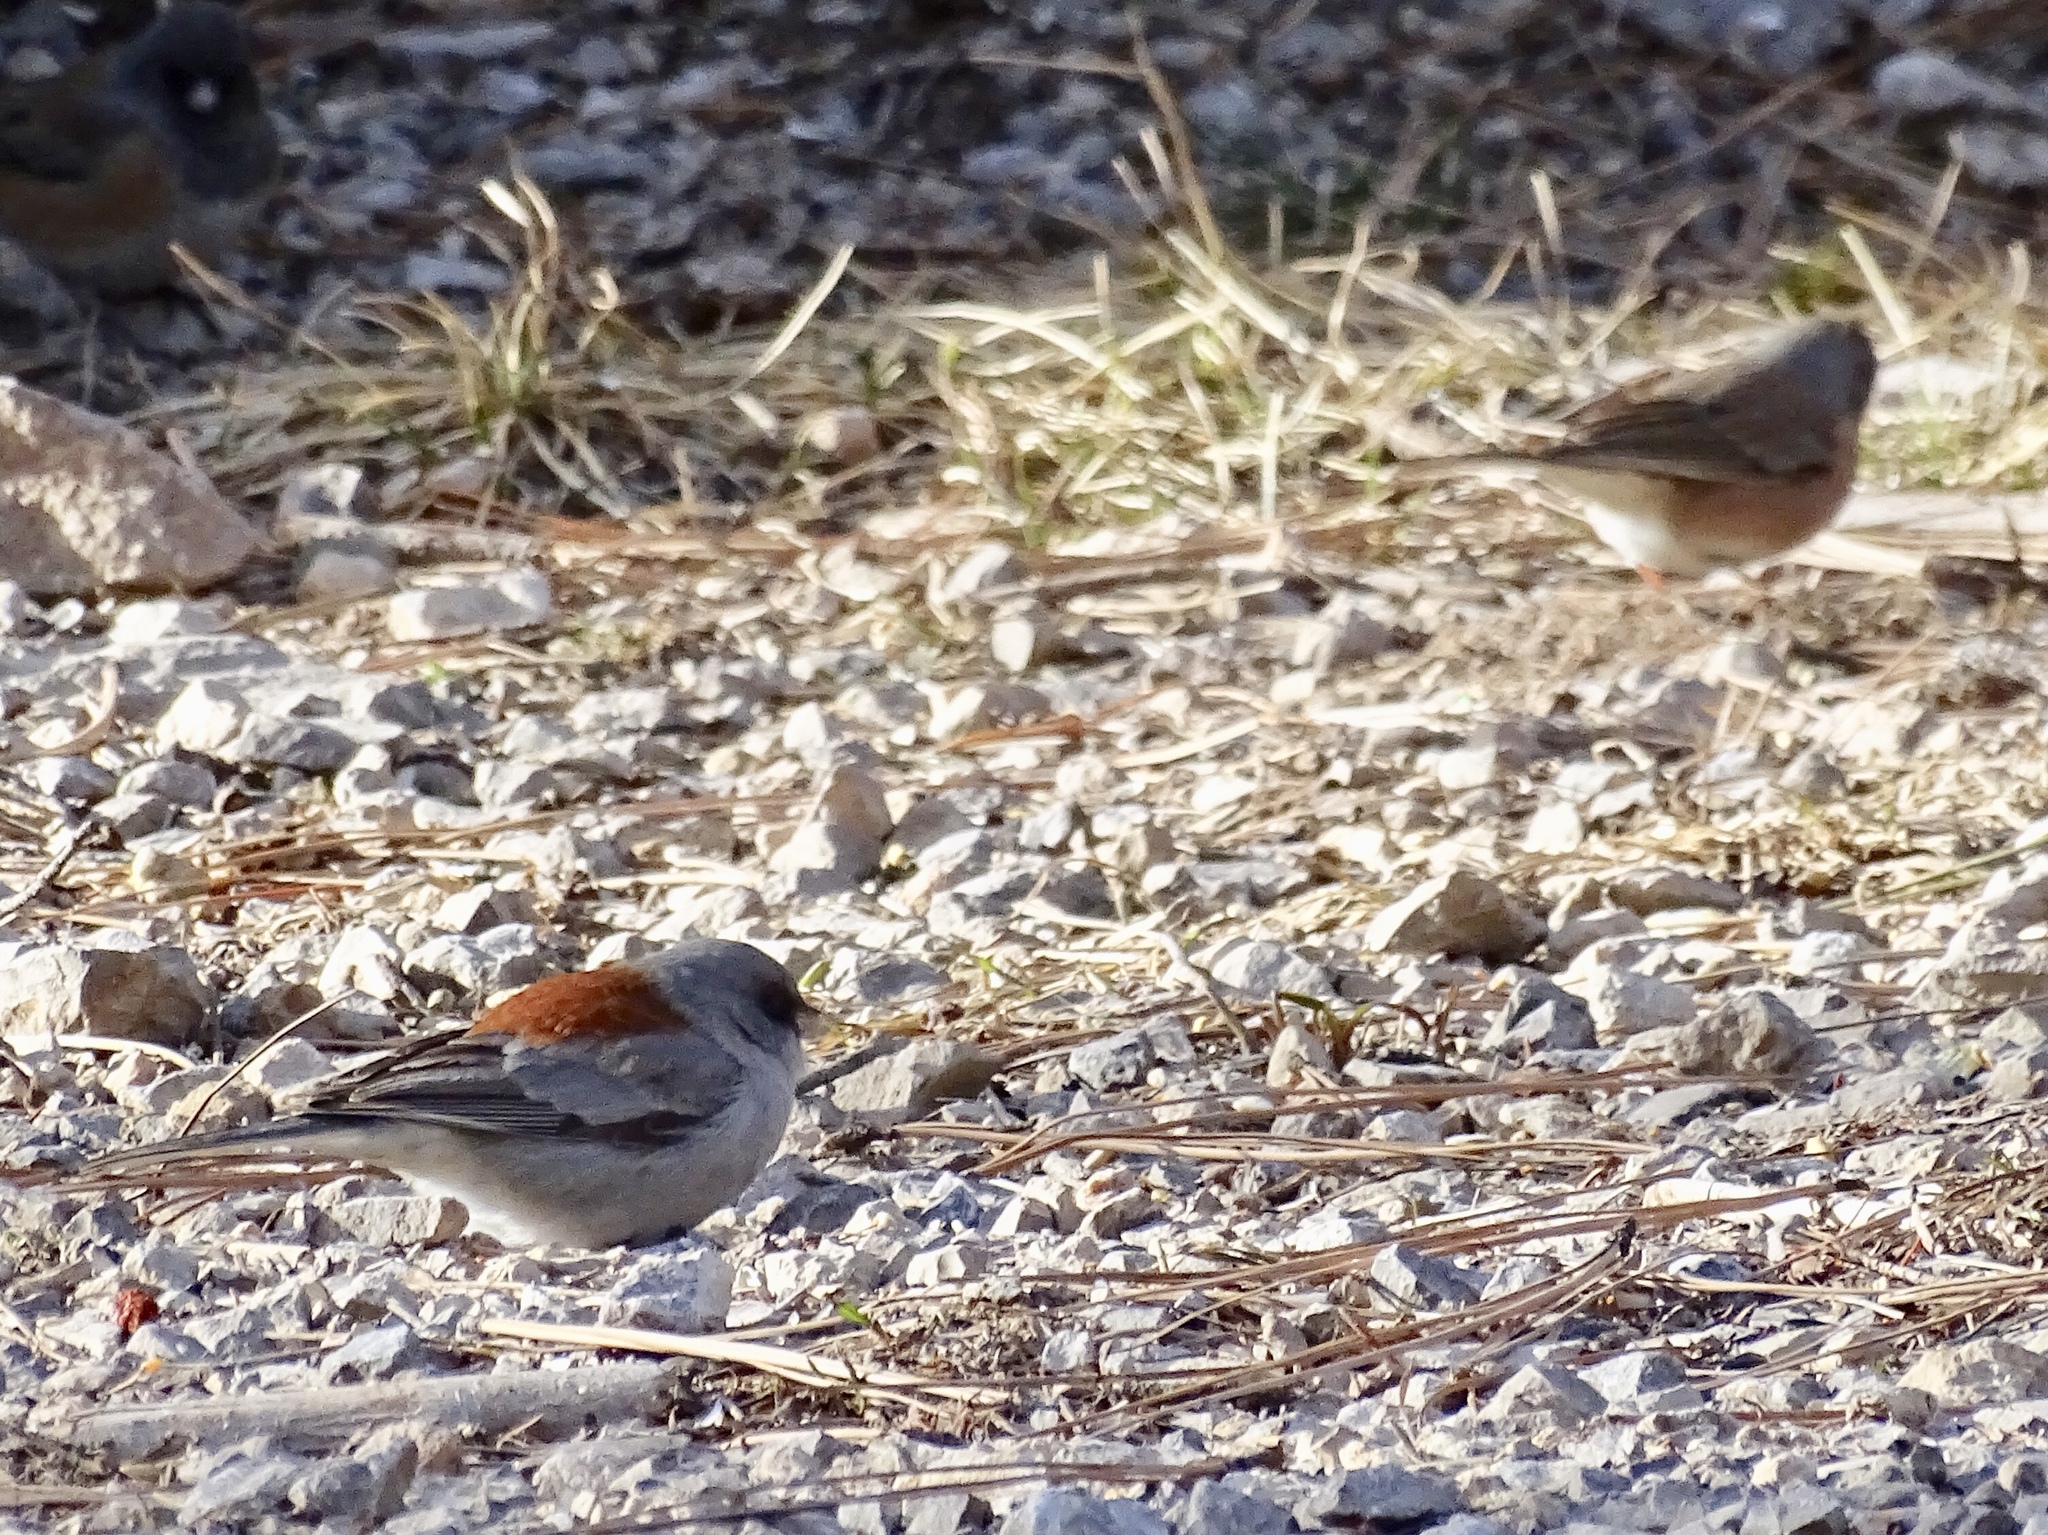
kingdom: Animalia
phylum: Chordata
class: Aves
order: Passeriformes
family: Passerellidae
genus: Junco
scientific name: Junco hyemalis
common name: Dark-eyed junco
